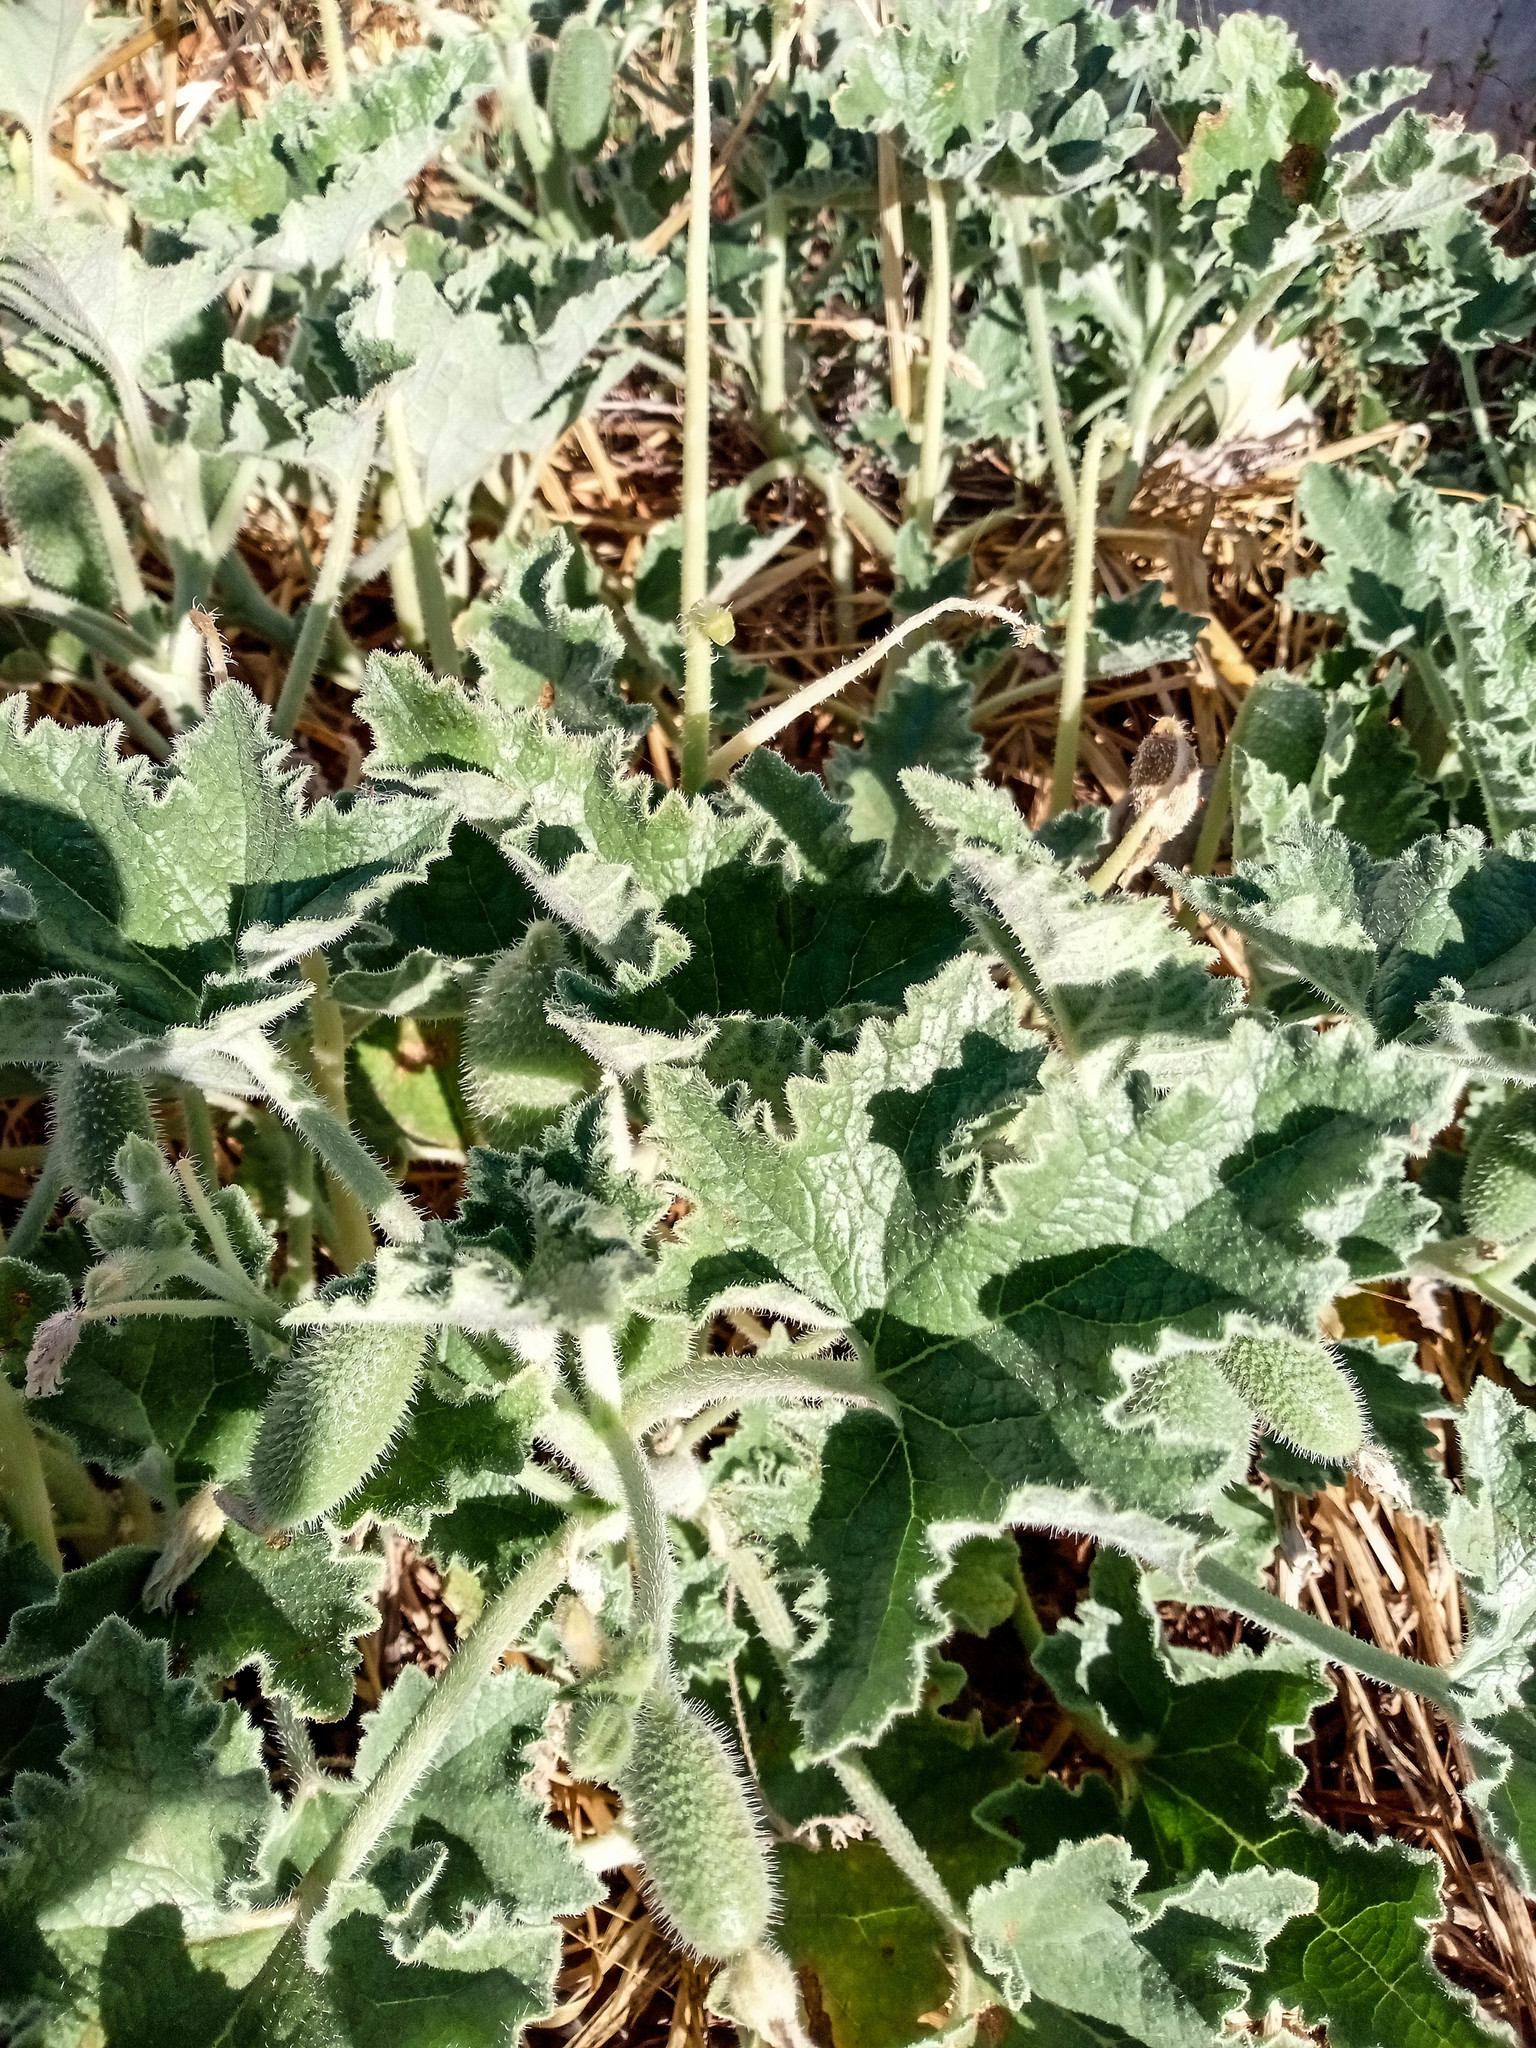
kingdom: Plantae
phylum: Tracheophyta
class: Magnoliopsida
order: Cucurbitales
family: Cucurbitaceae
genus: Ecballium
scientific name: Ecballium elaterium
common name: Squirting cucumber
